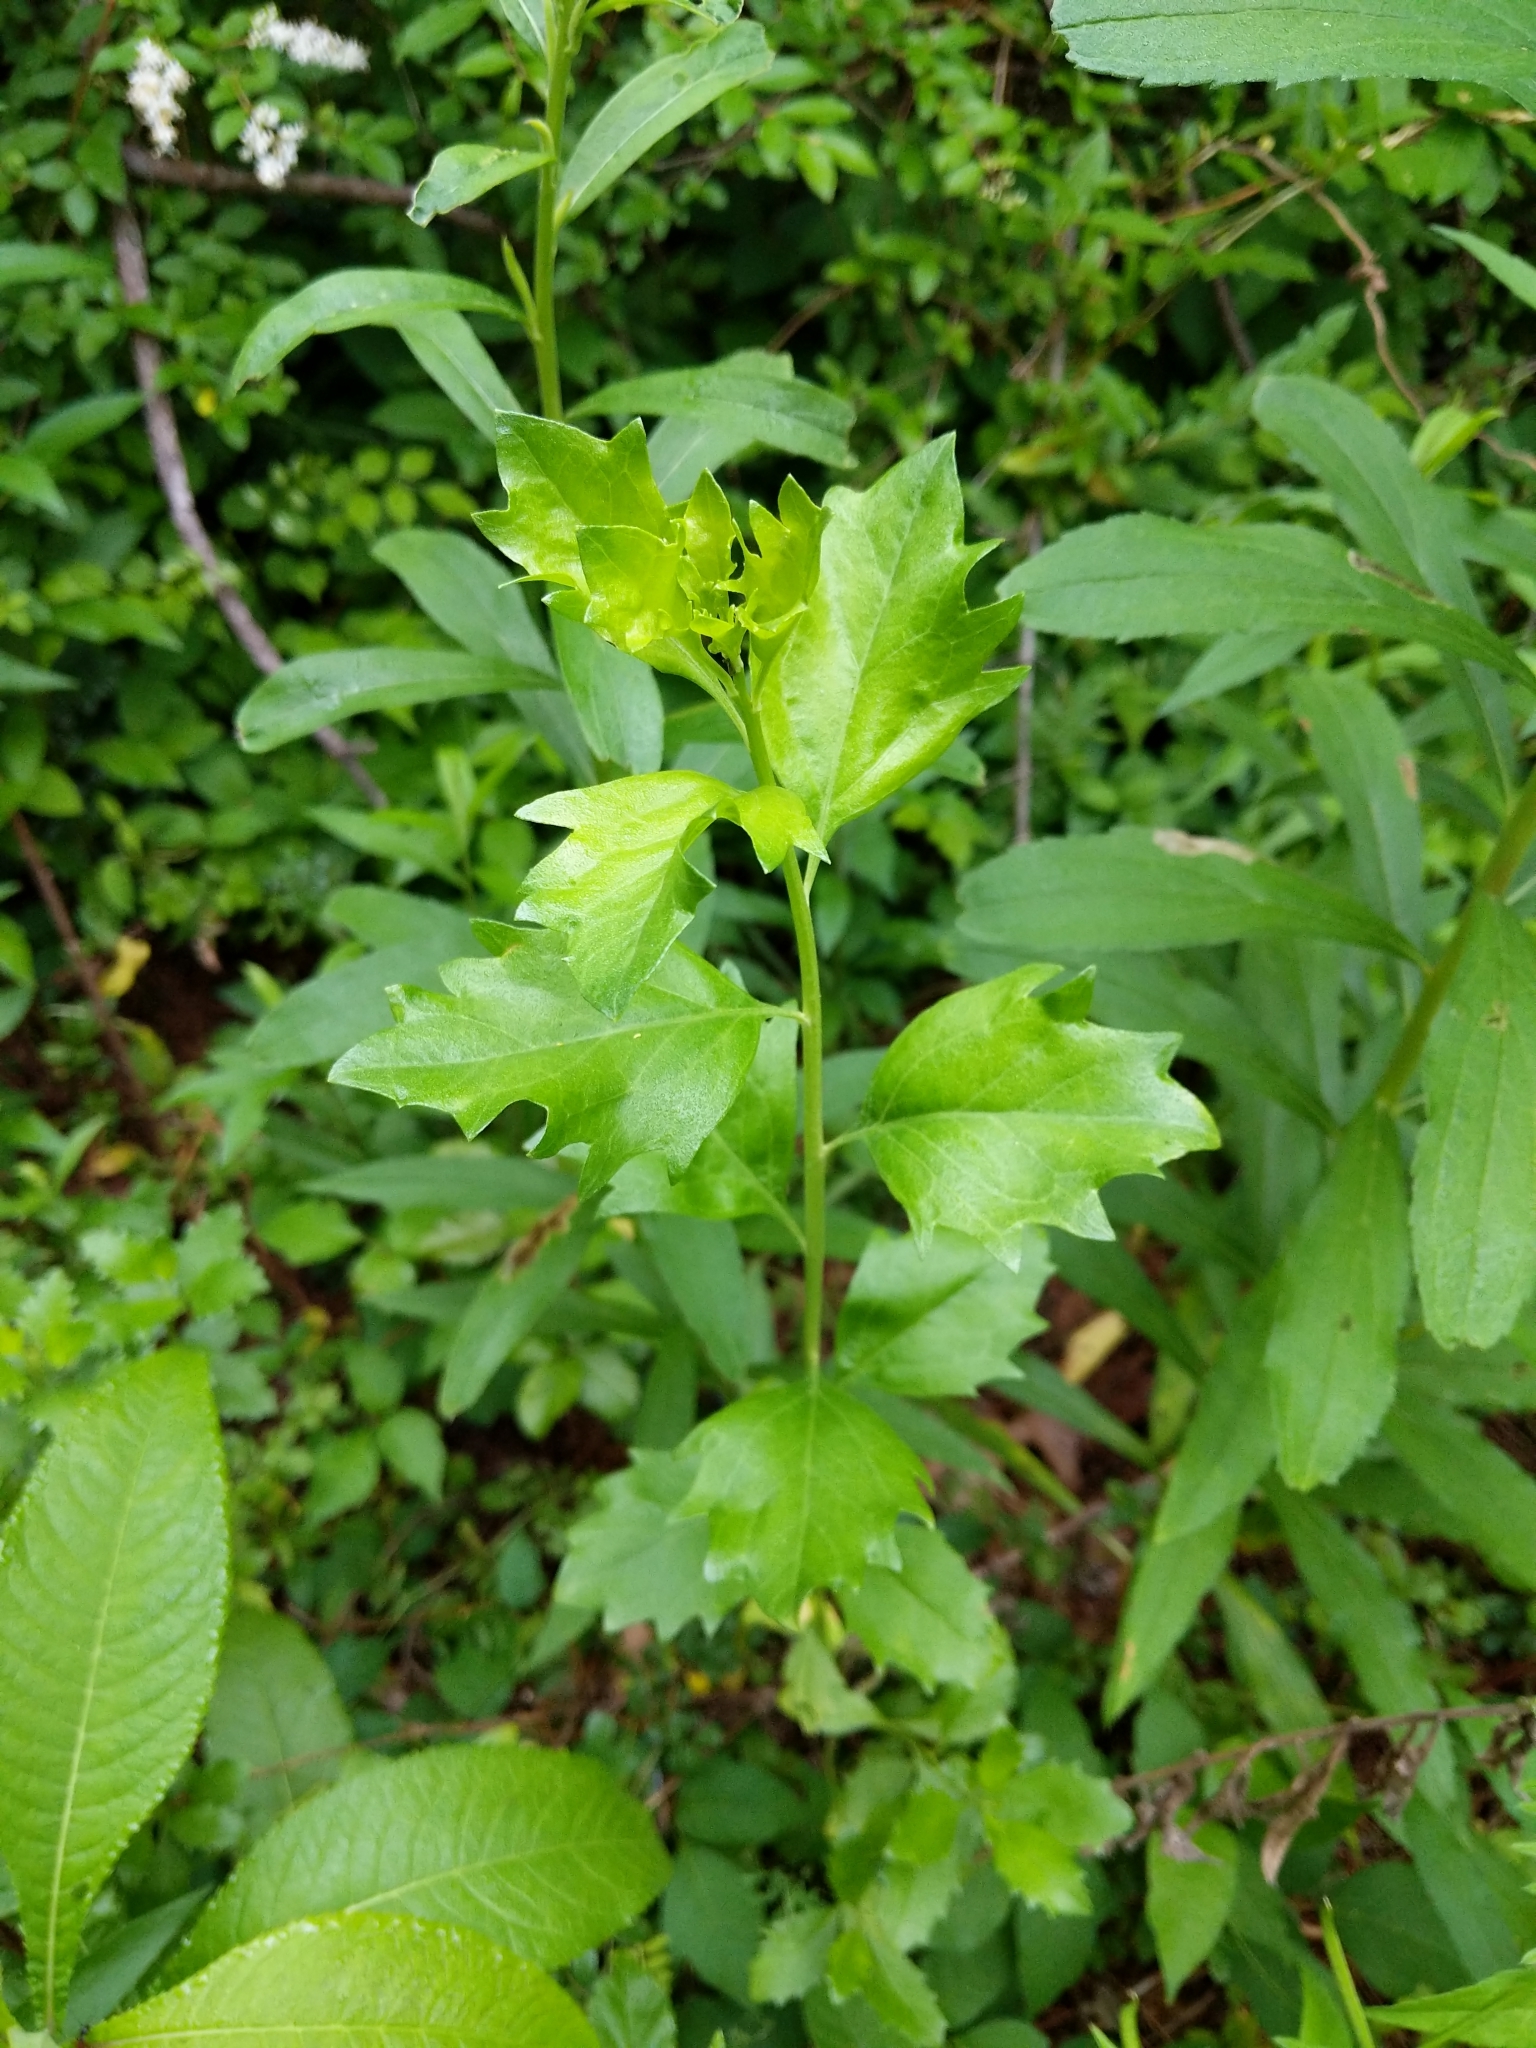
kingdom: Plantae
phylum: Tracheophyta
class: Magnoliopsida
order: Asterales
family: Asteraceae
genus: Baccharis
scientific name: Baccharis halimifolia
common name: Eastern baccharis
